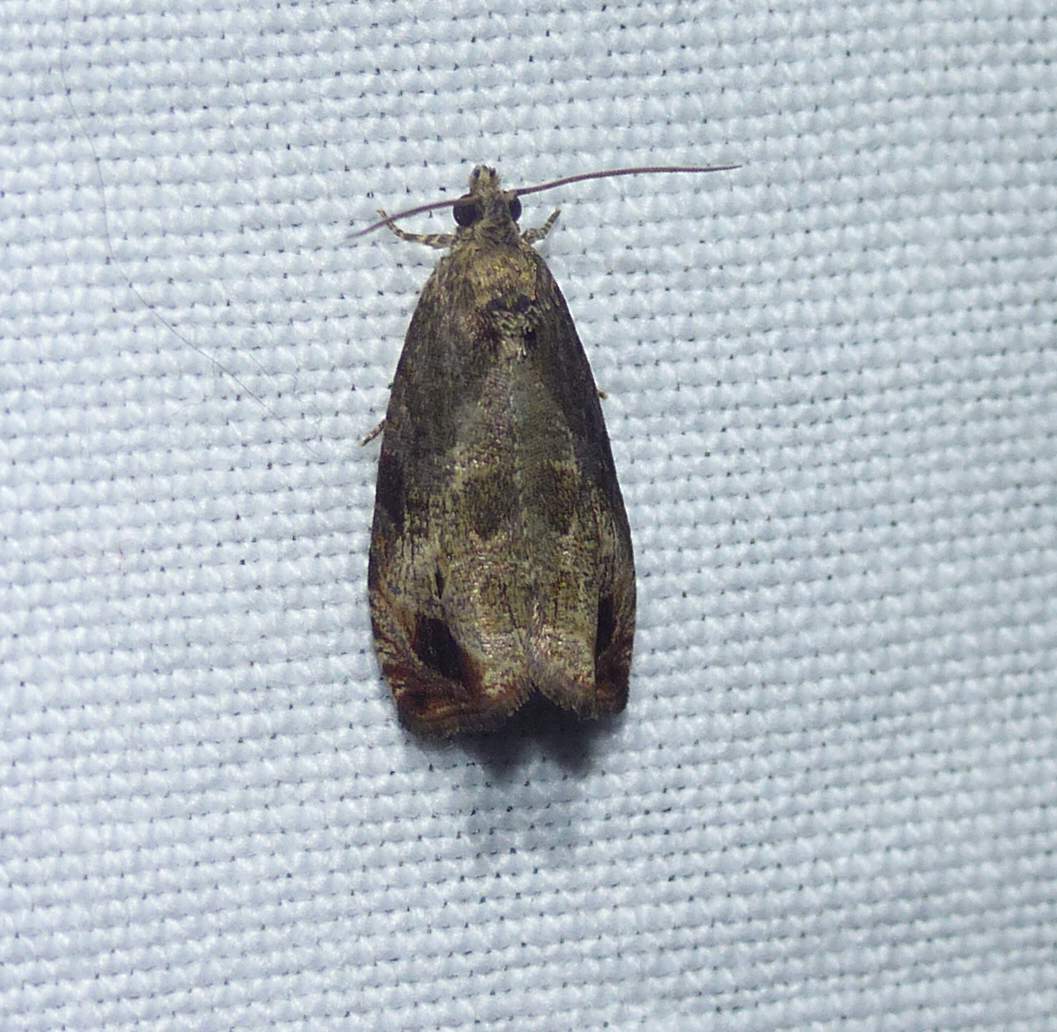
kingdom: Animalia
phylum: Arthropoda
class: Insecta
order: Lepidoptera
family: Tortricidae
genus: Olethreutes
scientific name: Olethreutes merrickanum
